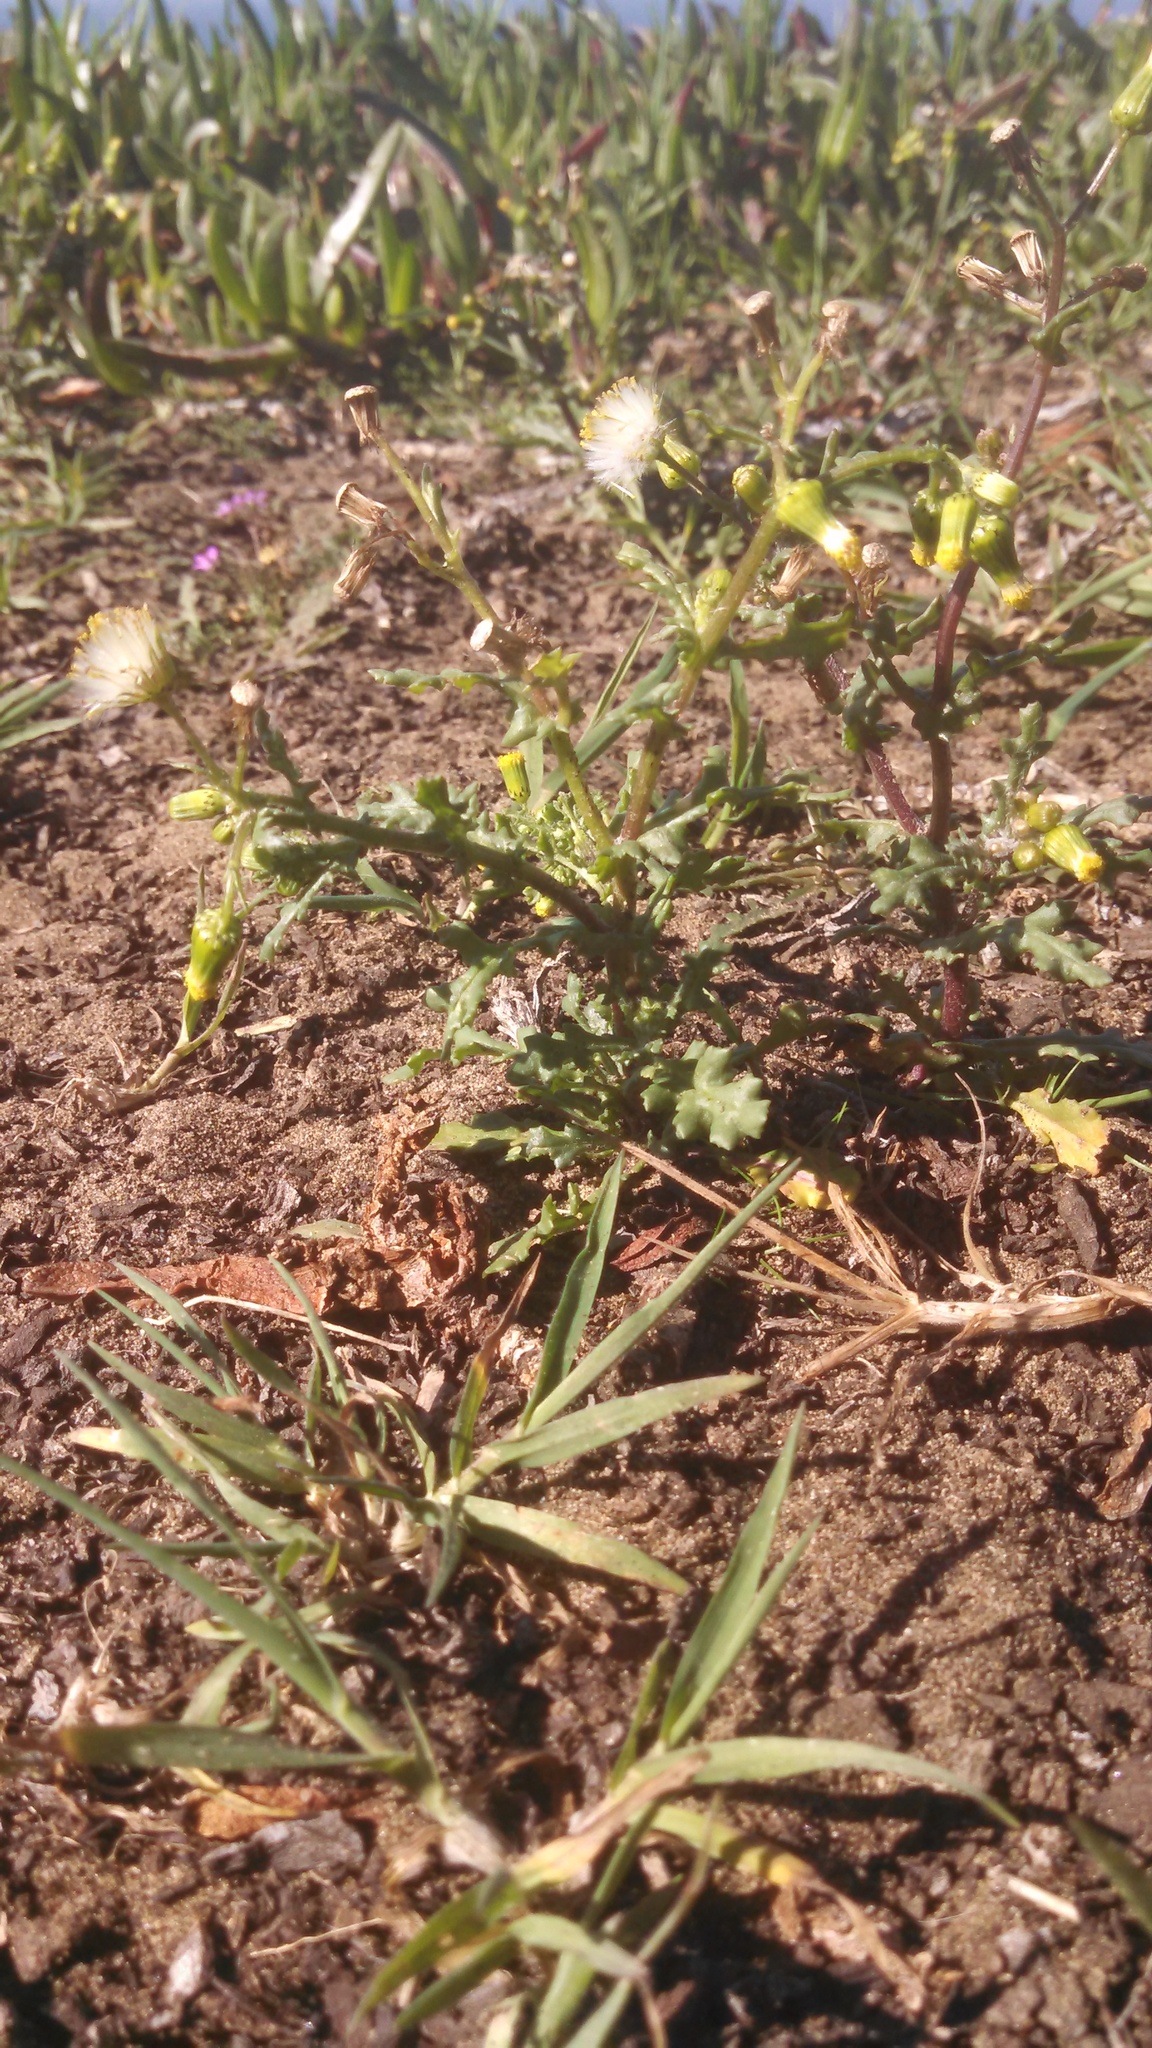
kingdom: Plantae
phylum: Tracheophyta
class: Magnoliopsida
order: Asterales
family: Asteraceae
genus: Senecio
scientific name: Senecio vulgaris
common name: Old-man-in-the-spring
